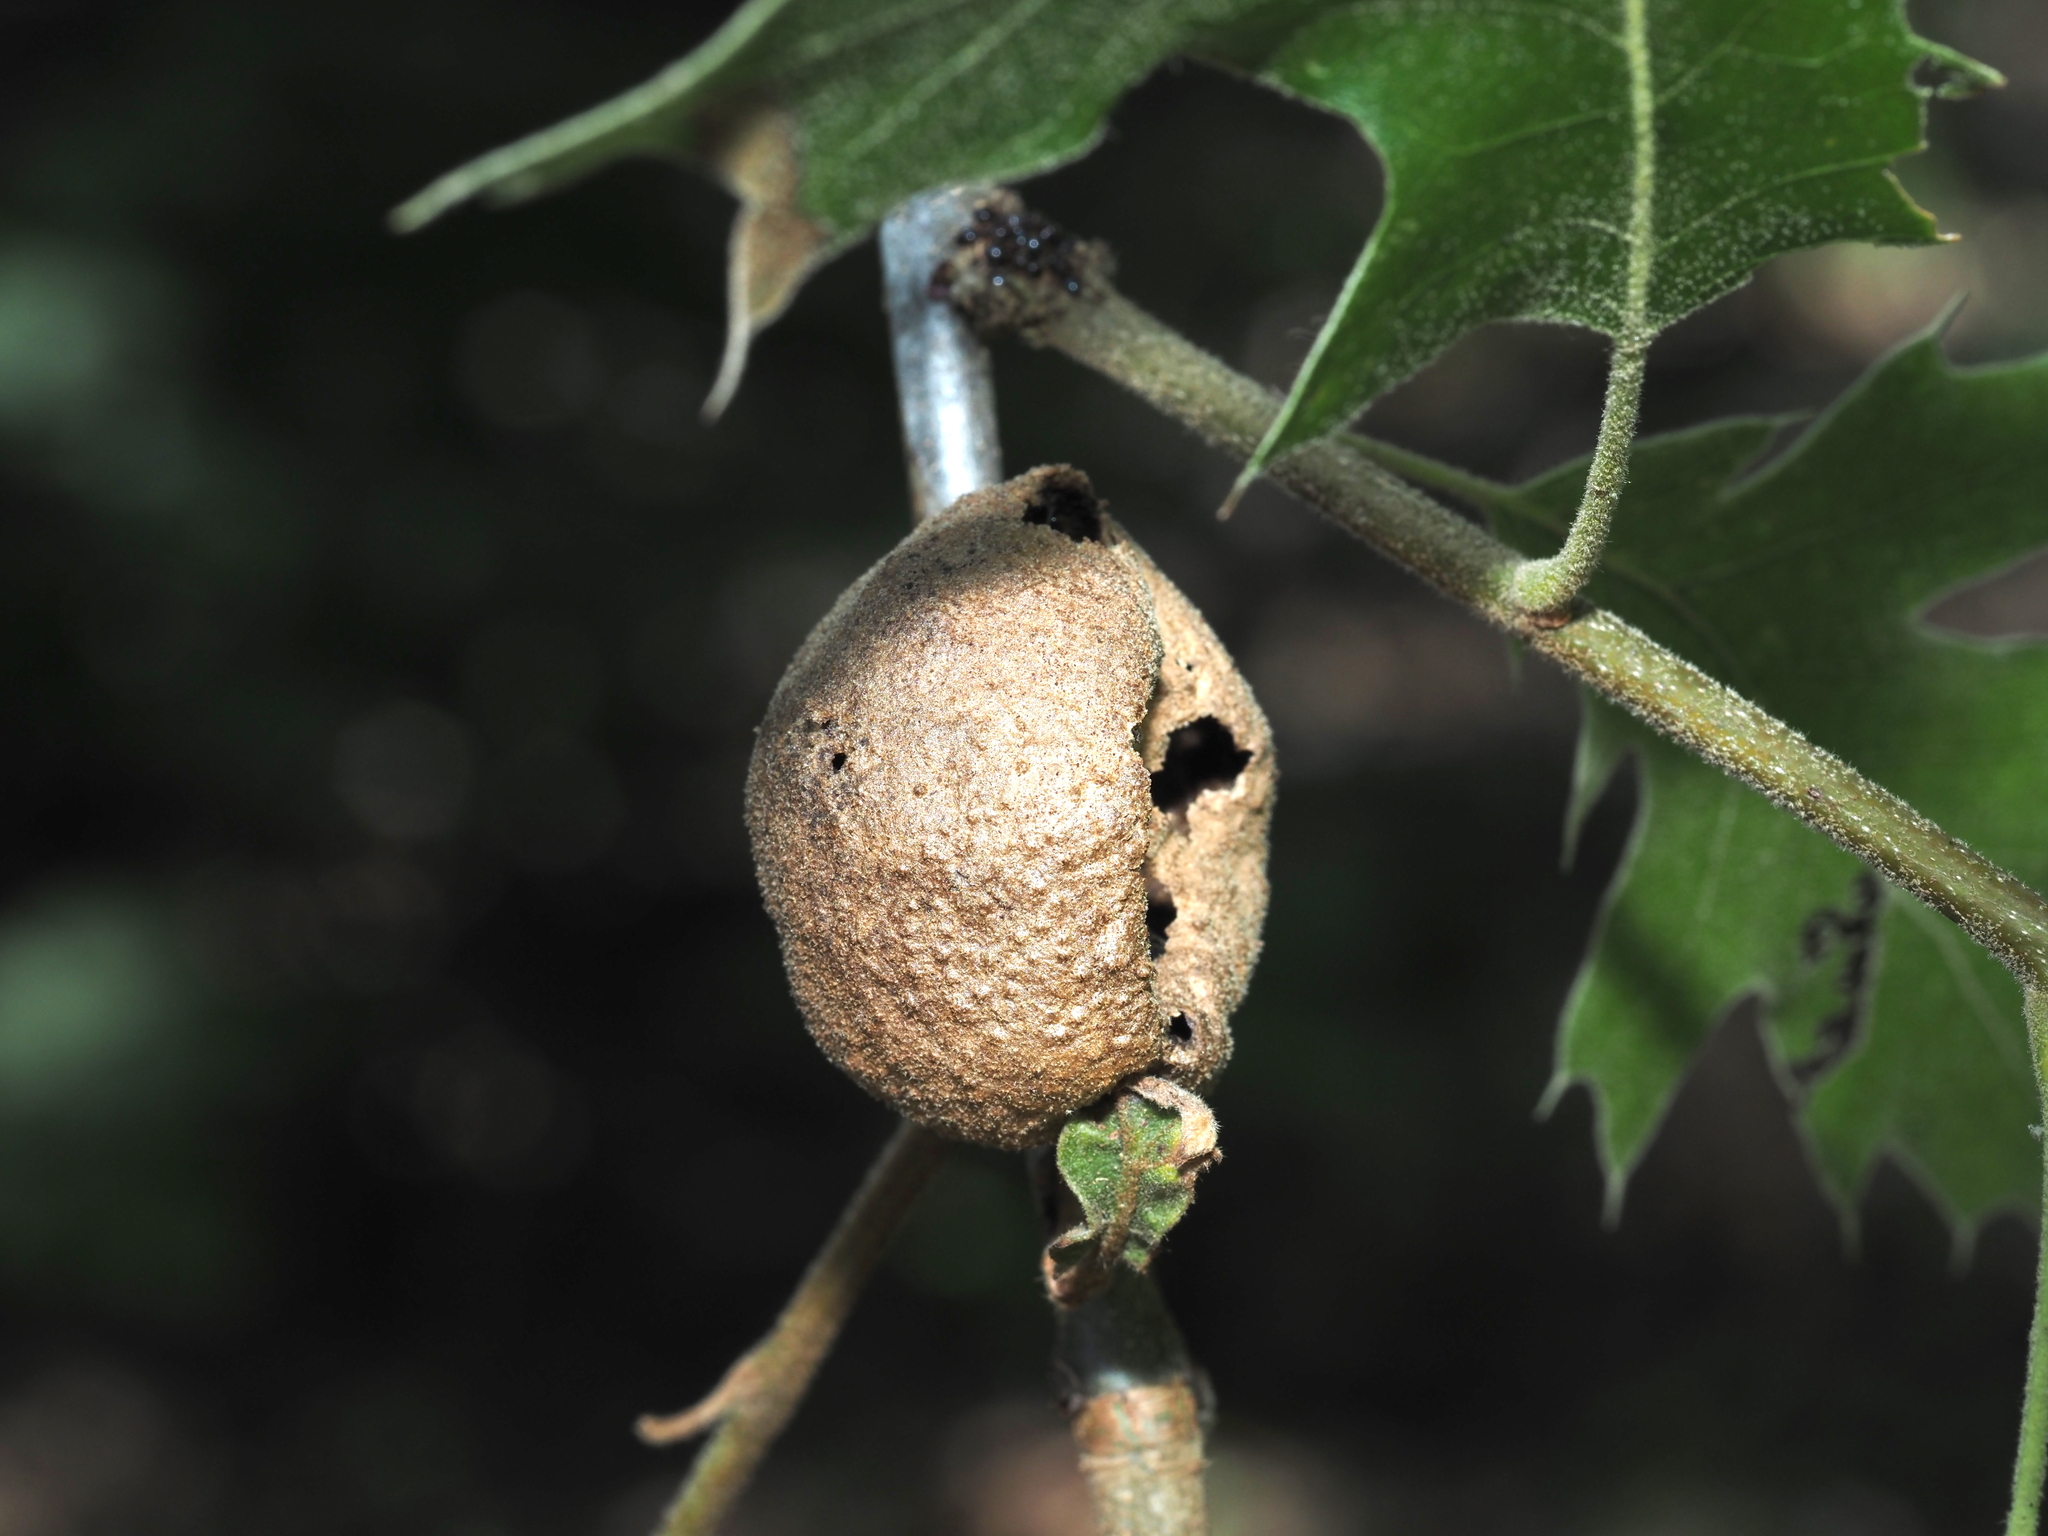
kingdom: Animalia
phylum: Arthropoda
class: Insecta
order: Hymenoptera
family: Cynipidae
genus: Amphibolips
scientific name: Amphibolips
